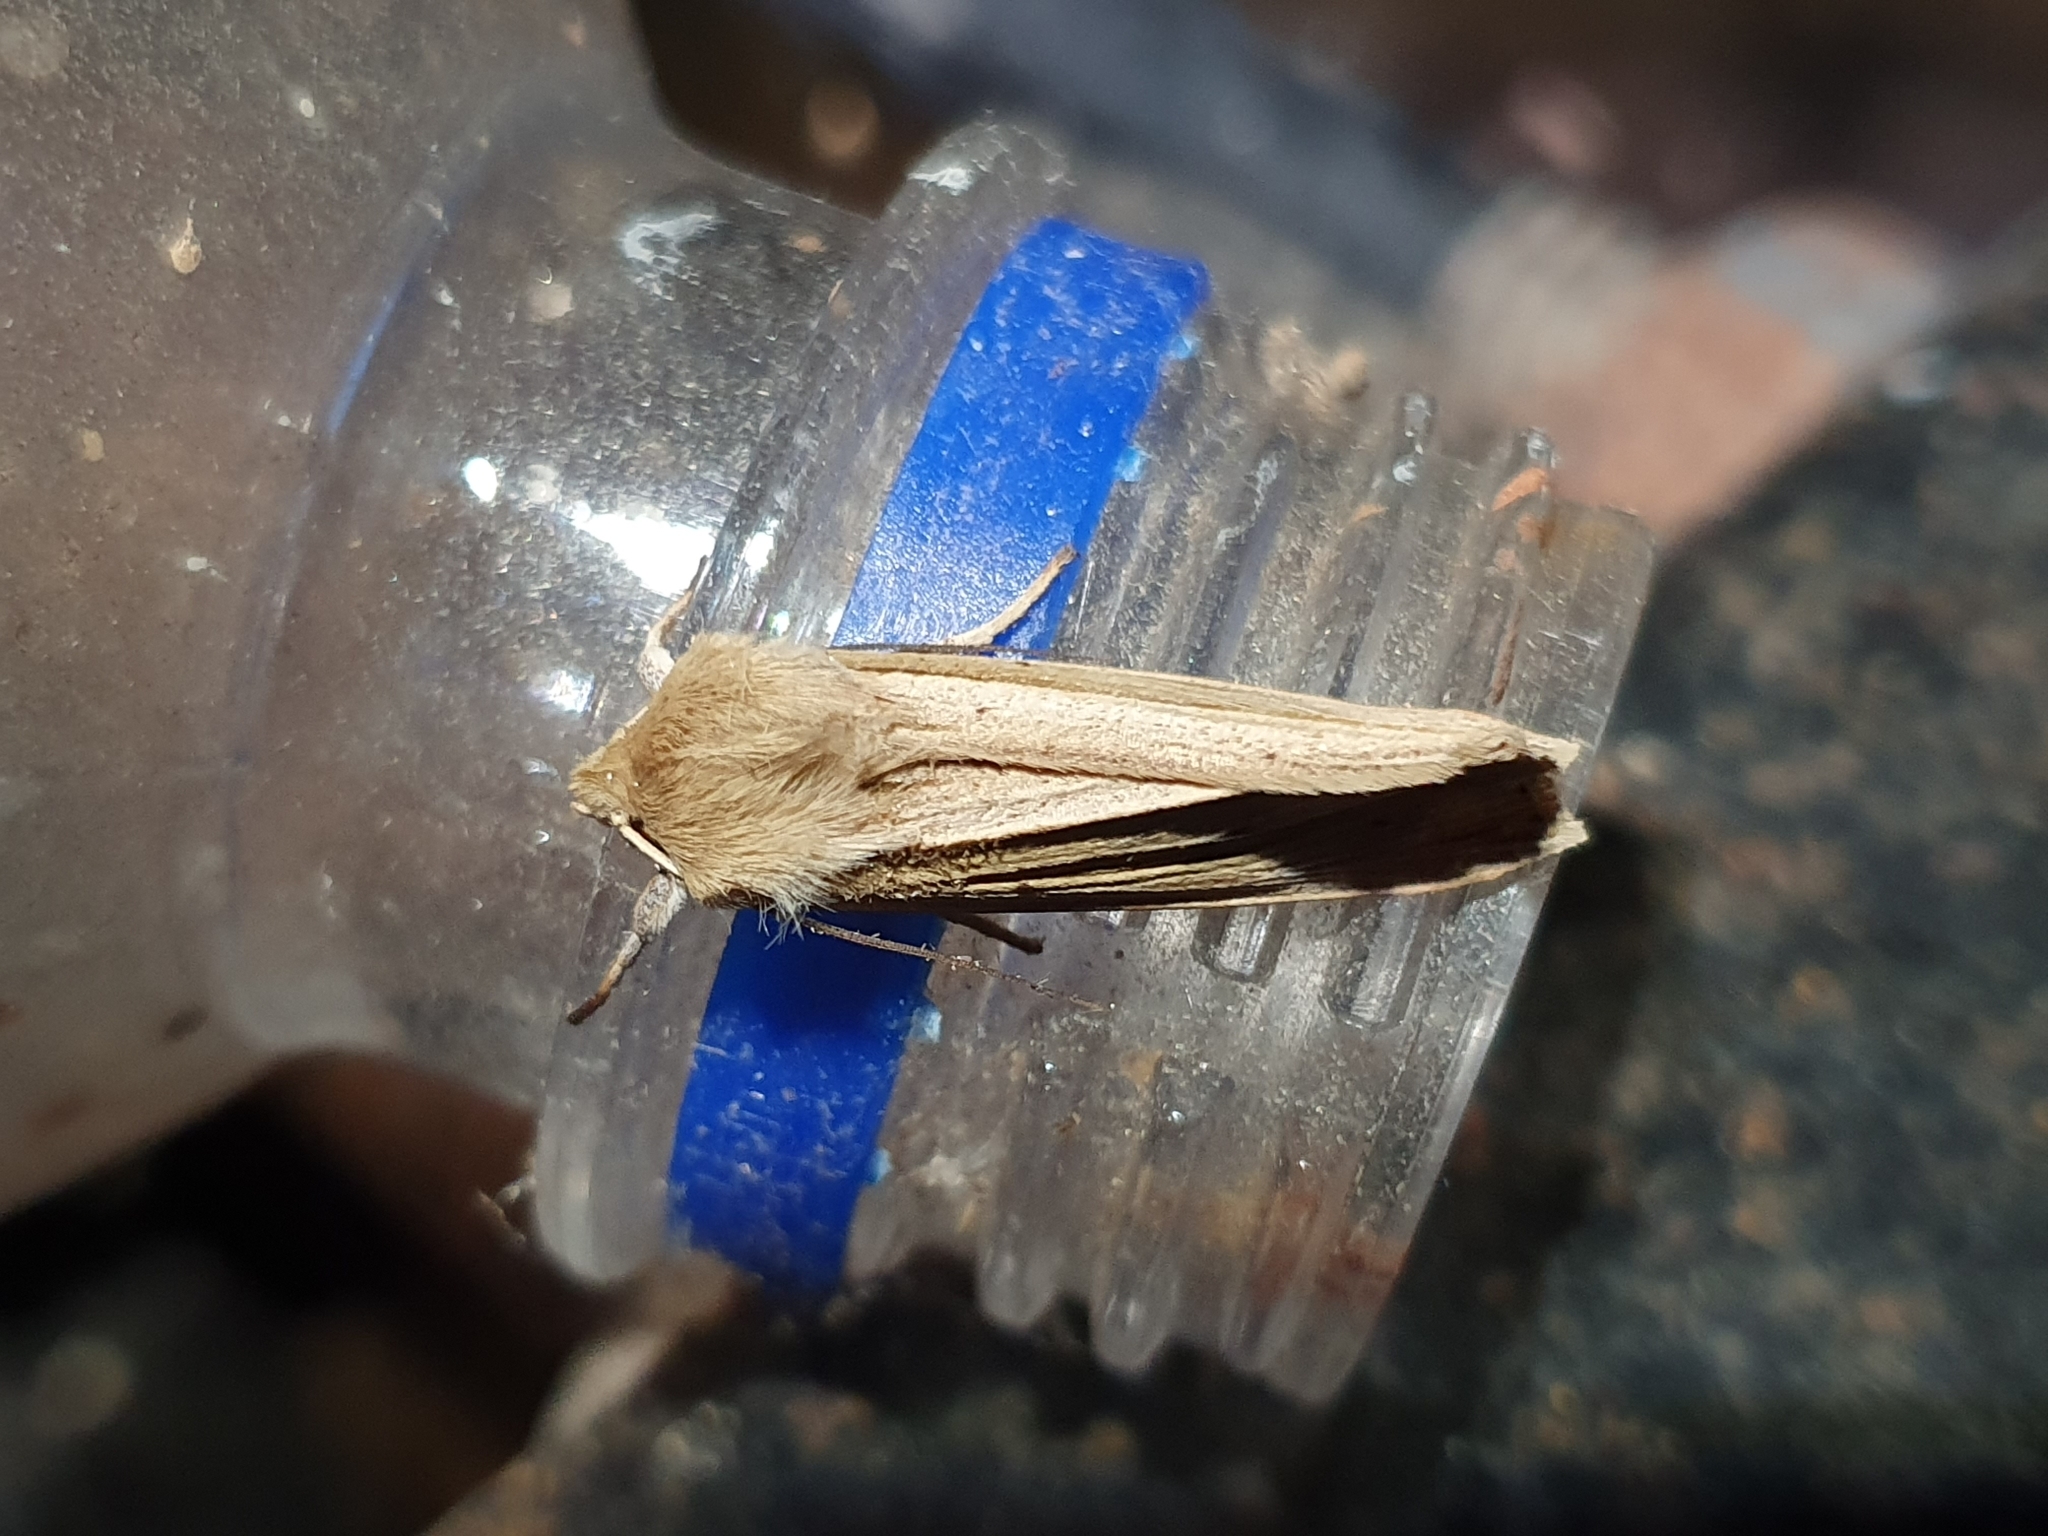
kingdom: Animalia
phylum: Arthropoda
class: Insecta
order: Lepidoptera
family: Noctuidae
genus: Ichneutica
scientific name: Ichneutica sulcana
